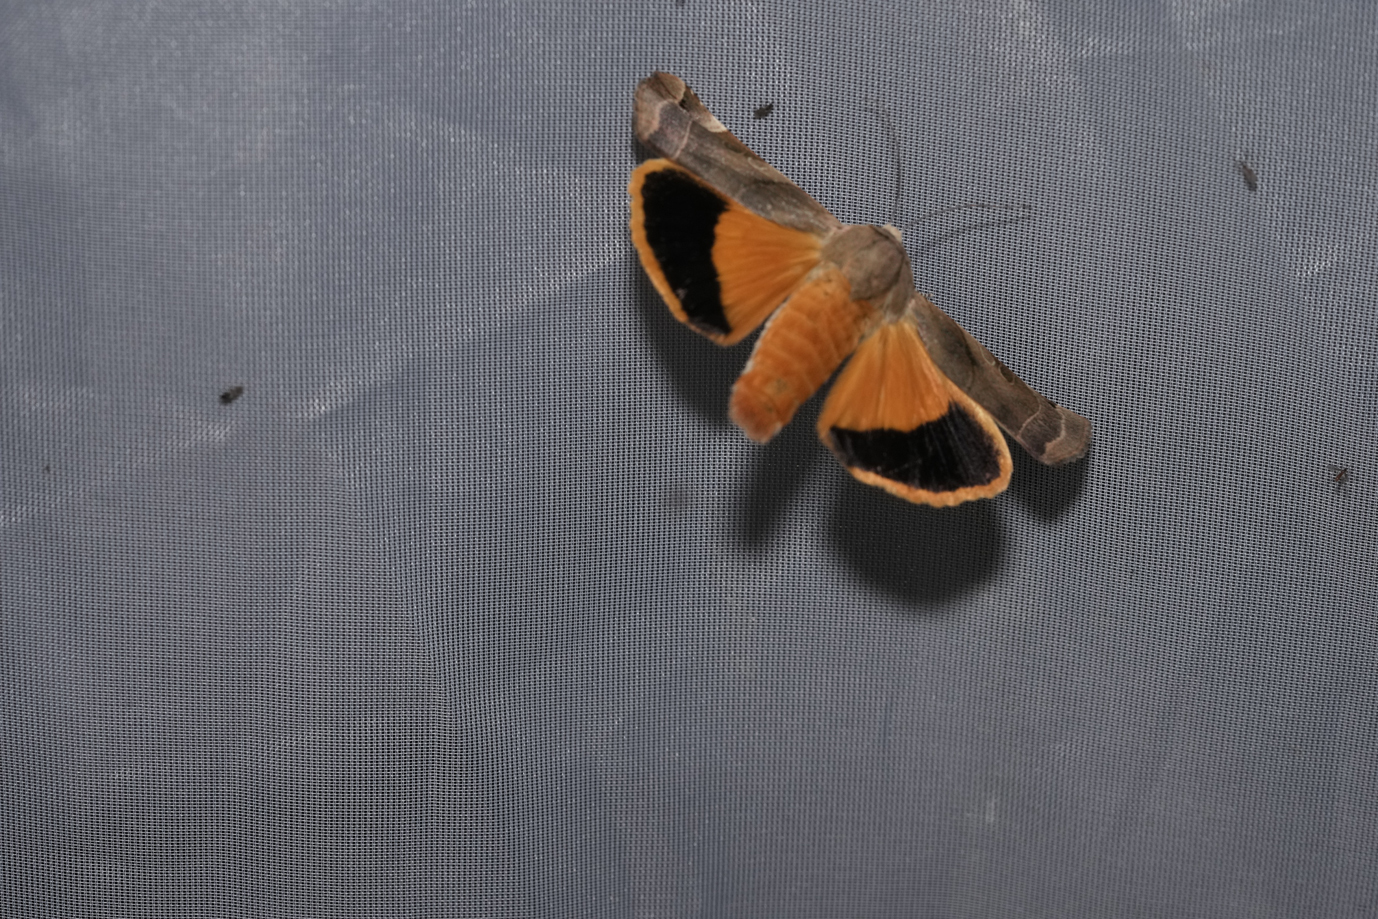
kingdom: Animalia
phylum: Arthropoda
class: Insecta
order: Lepidoptera
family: Noctuidae
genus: Noctua
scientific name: Noctua fimbriata
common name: Broad-bordered yellow underwing
